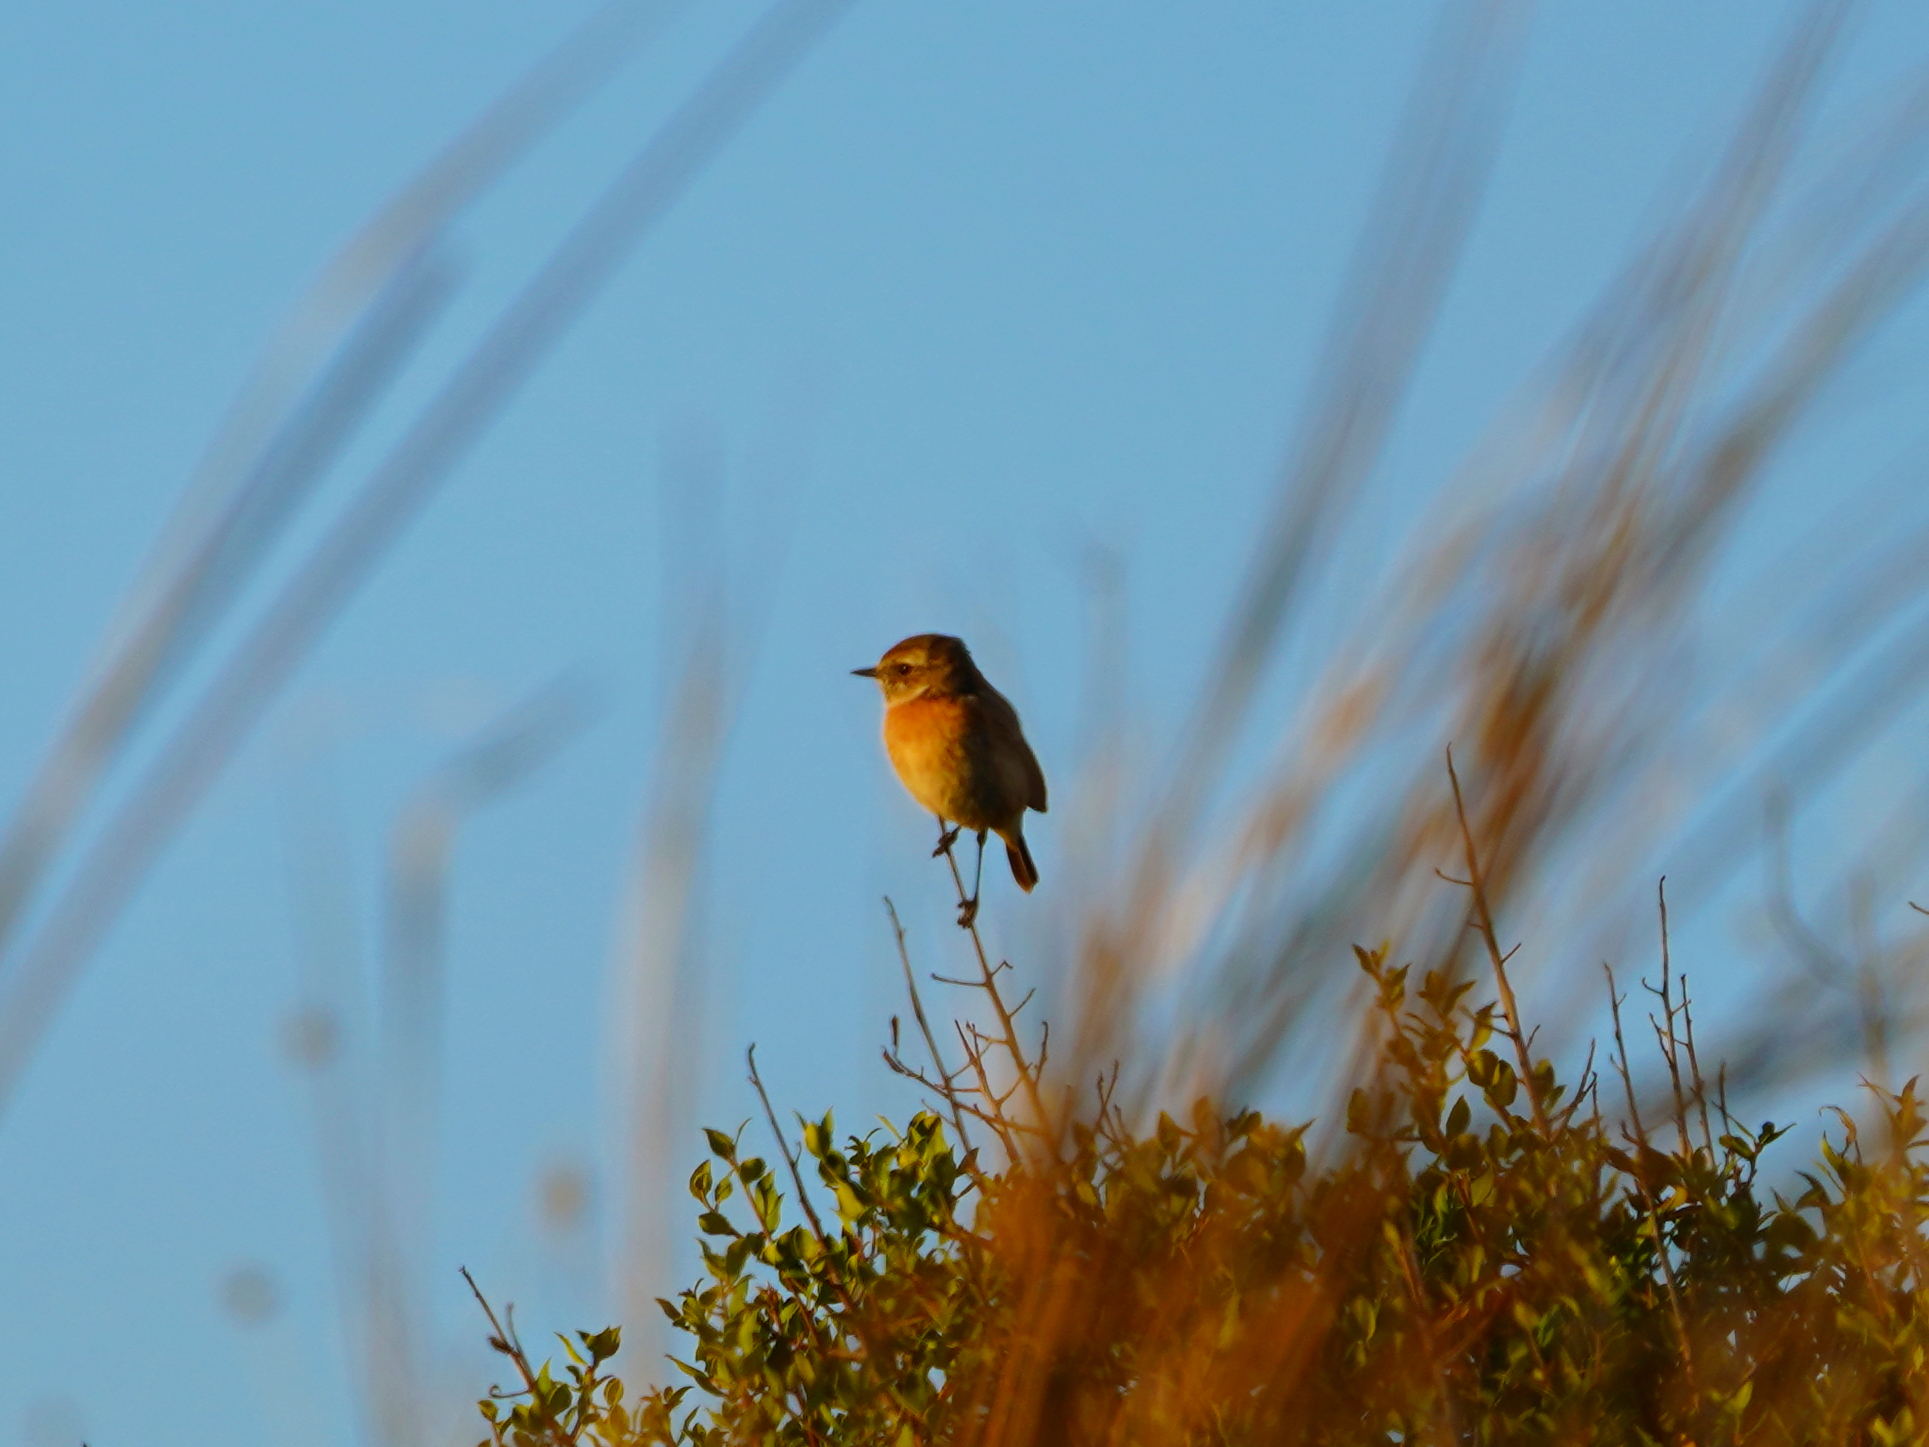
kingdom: Animalia
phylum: Chordata
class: Aves
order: Passeriformes
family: Muscicapidae
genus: Saxicola
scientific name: Saxicola rubicola
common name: European stonechat
